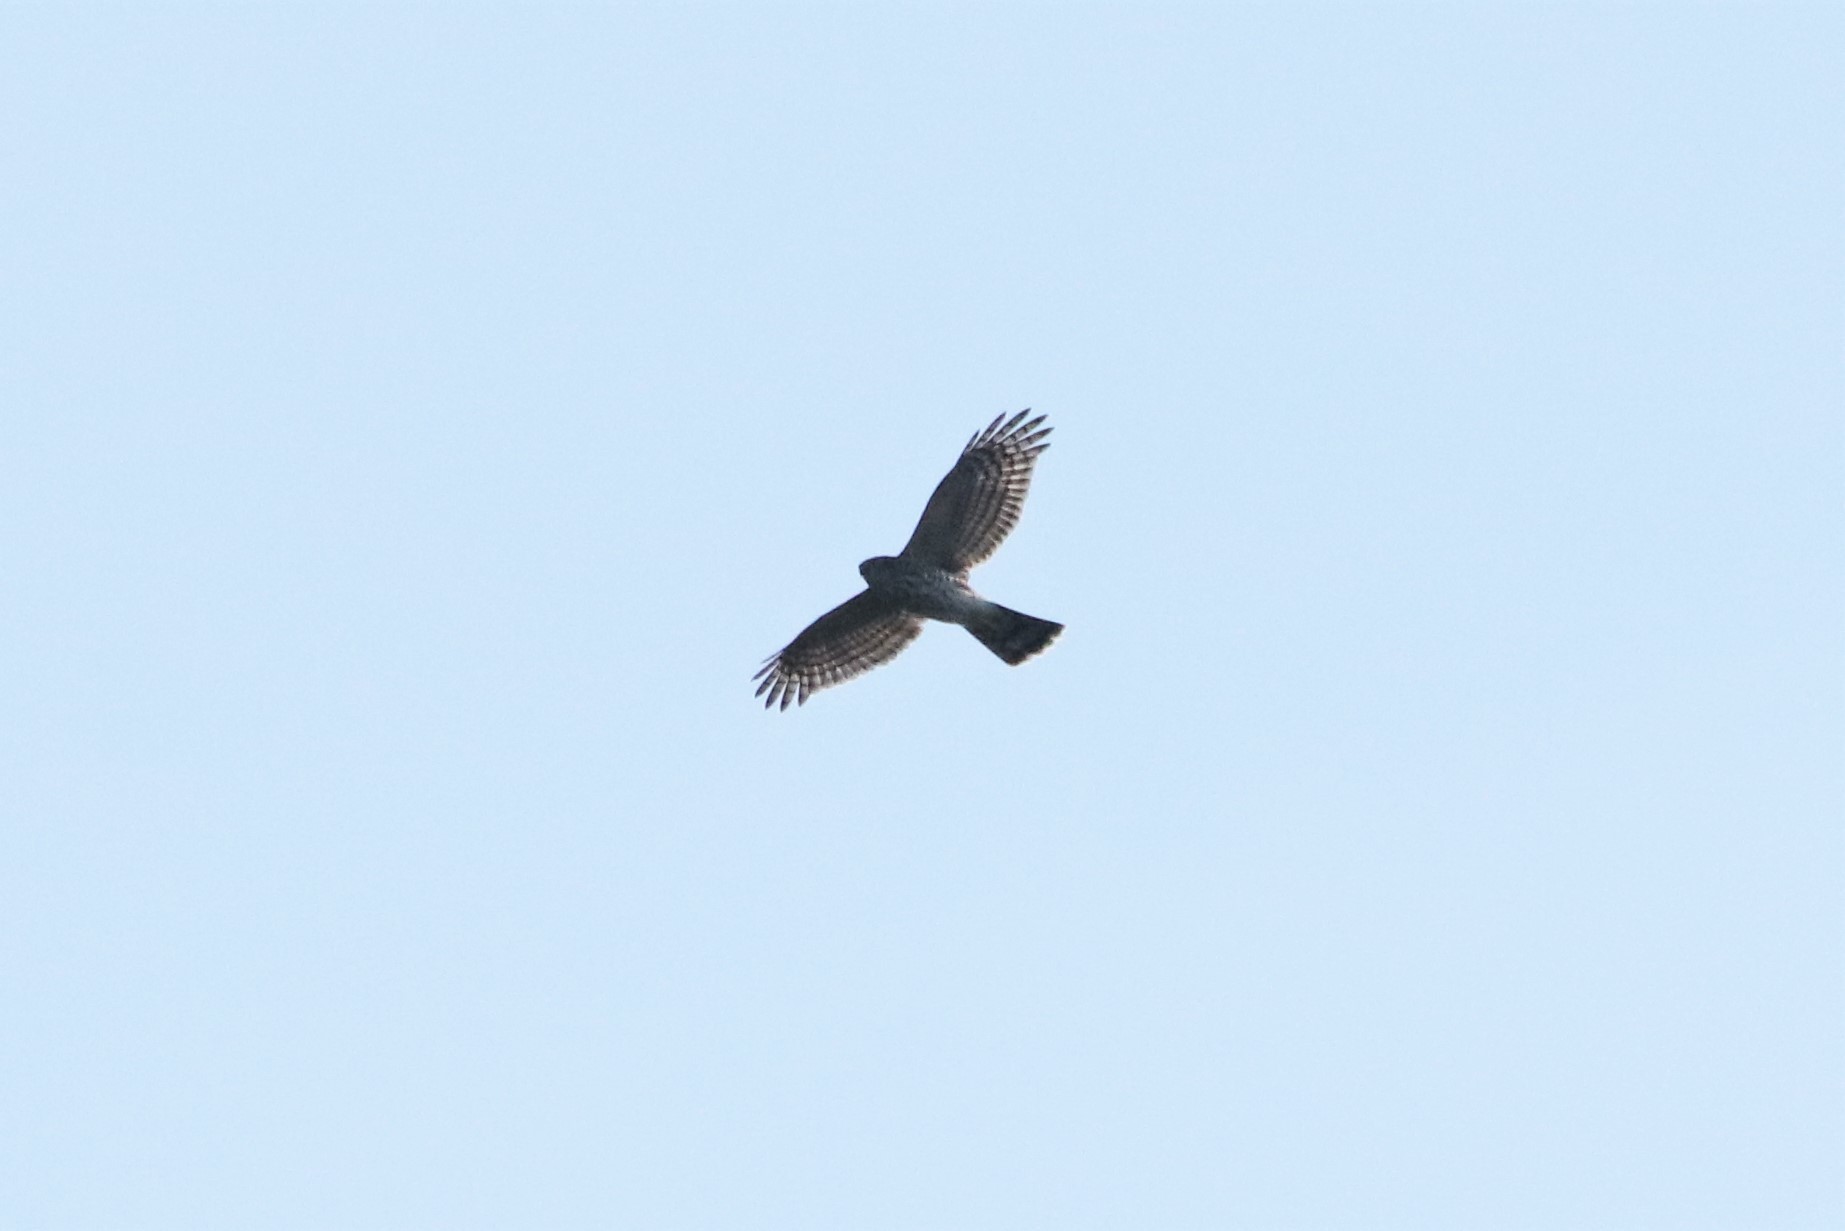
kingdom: Animalia
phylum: Chordata
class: Aves
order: Accipitriformes
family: Accipitridae
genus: Accipiter
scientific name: Accipiter striatus
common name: Sharp-shinned hawk
